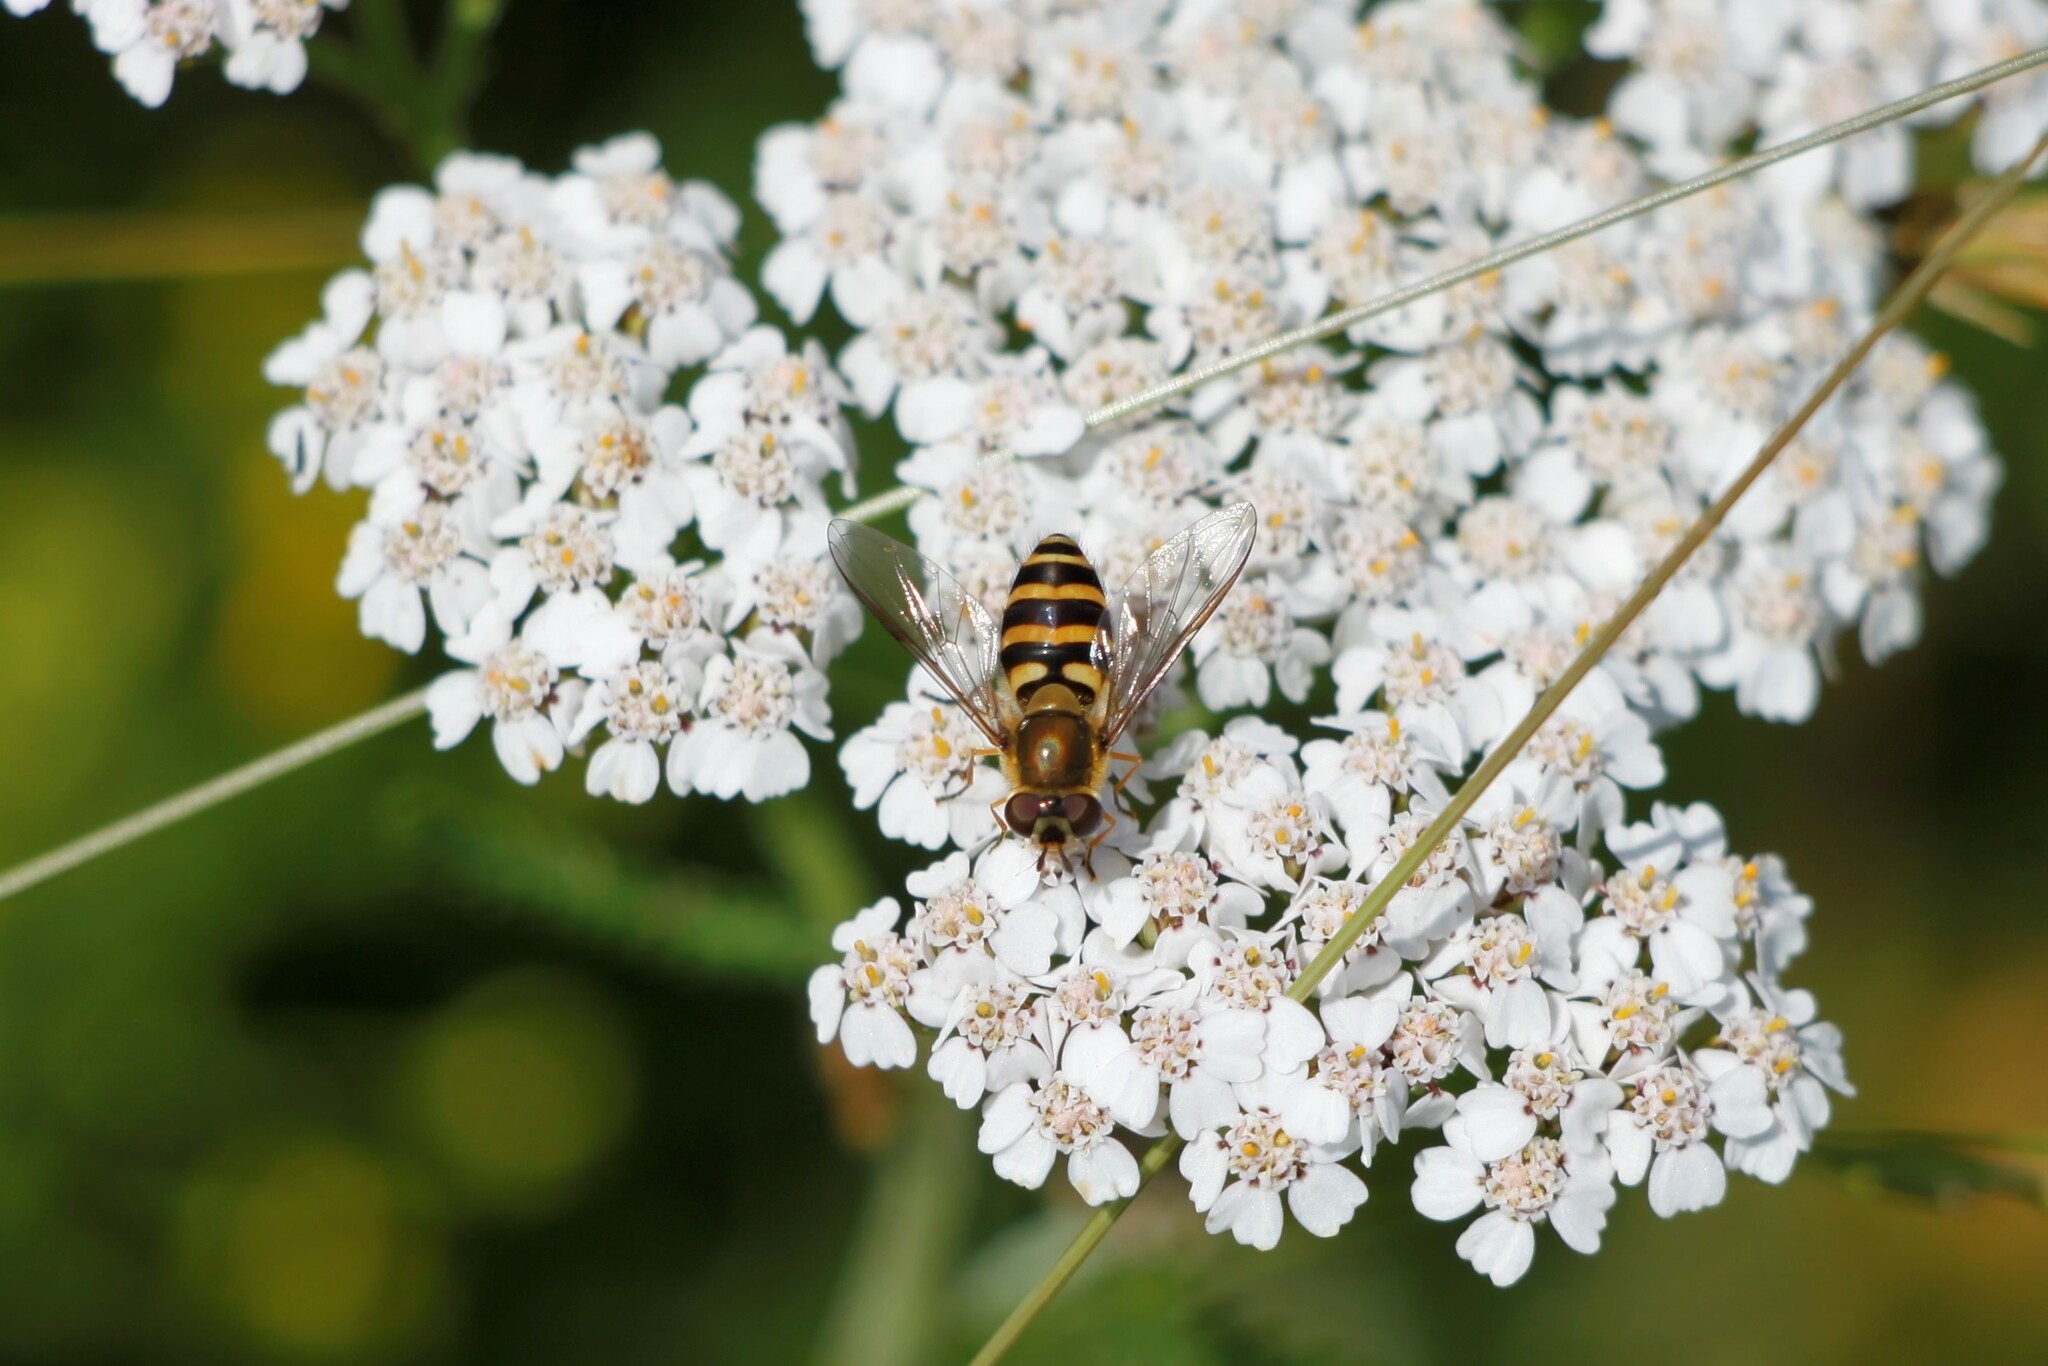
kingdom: Animalia
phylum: Arthropoda
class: Insecta
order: Diptera
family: Syrphidae
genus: Syrphus
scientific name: Syrphus
